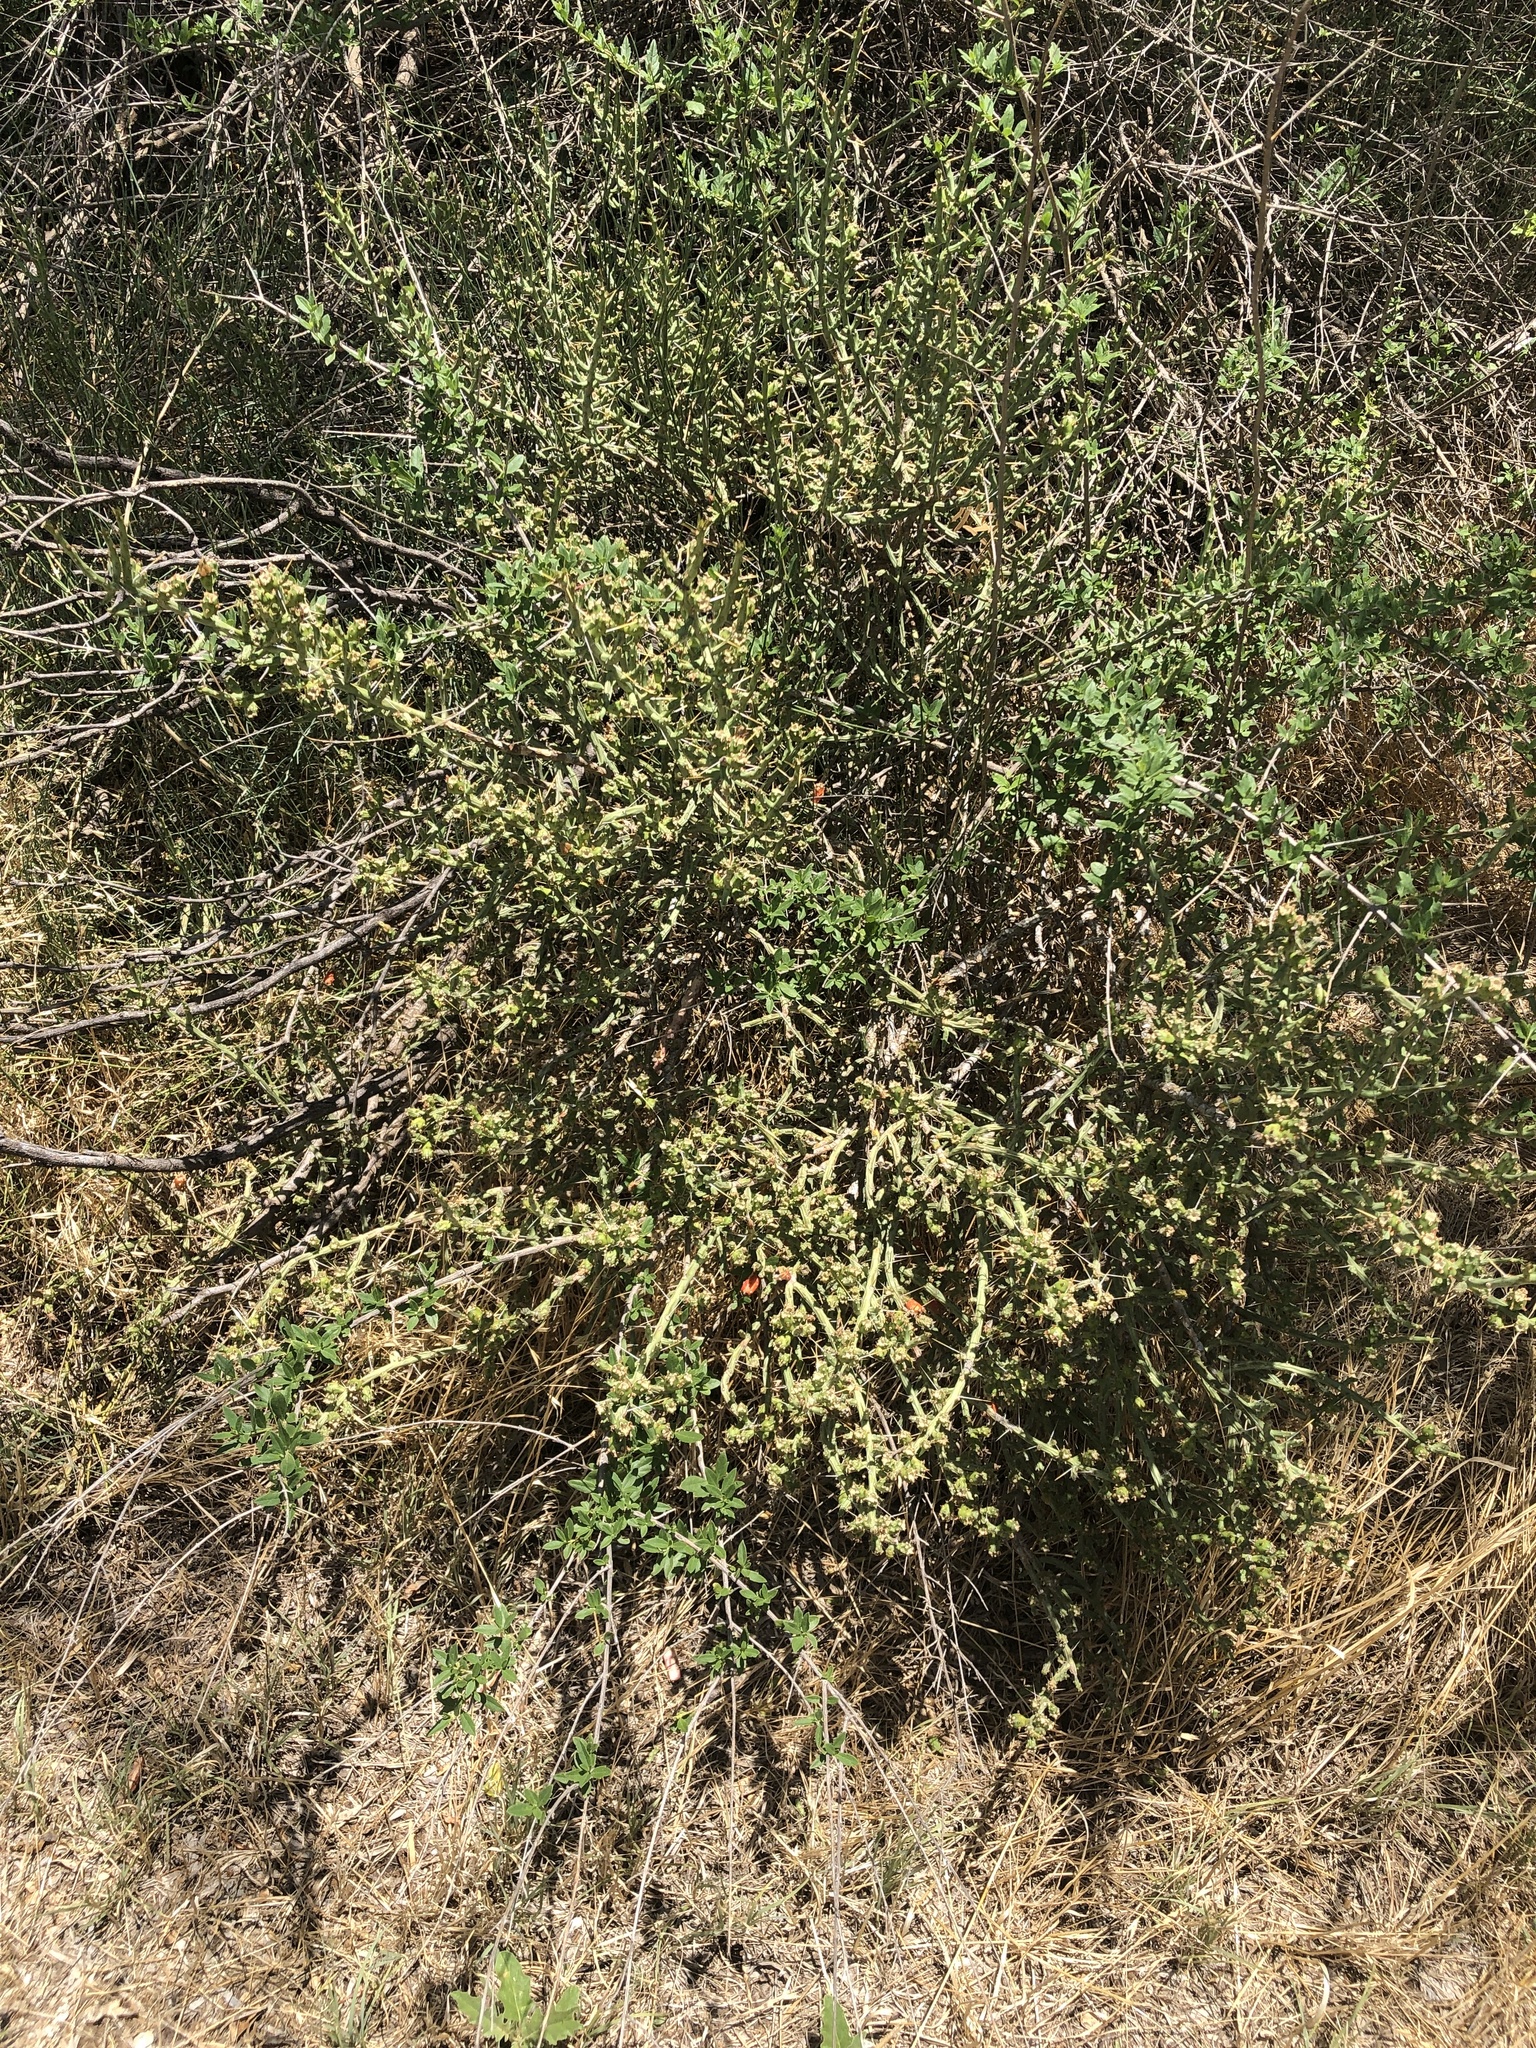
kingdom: Plantae
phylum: Tracheophyta
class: Magnoliopsida
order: Caryophyllales
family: Cactaceae
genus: Cylindropuntia
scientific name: Cylindropuntia leptocaulis
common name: Christmas cactus
